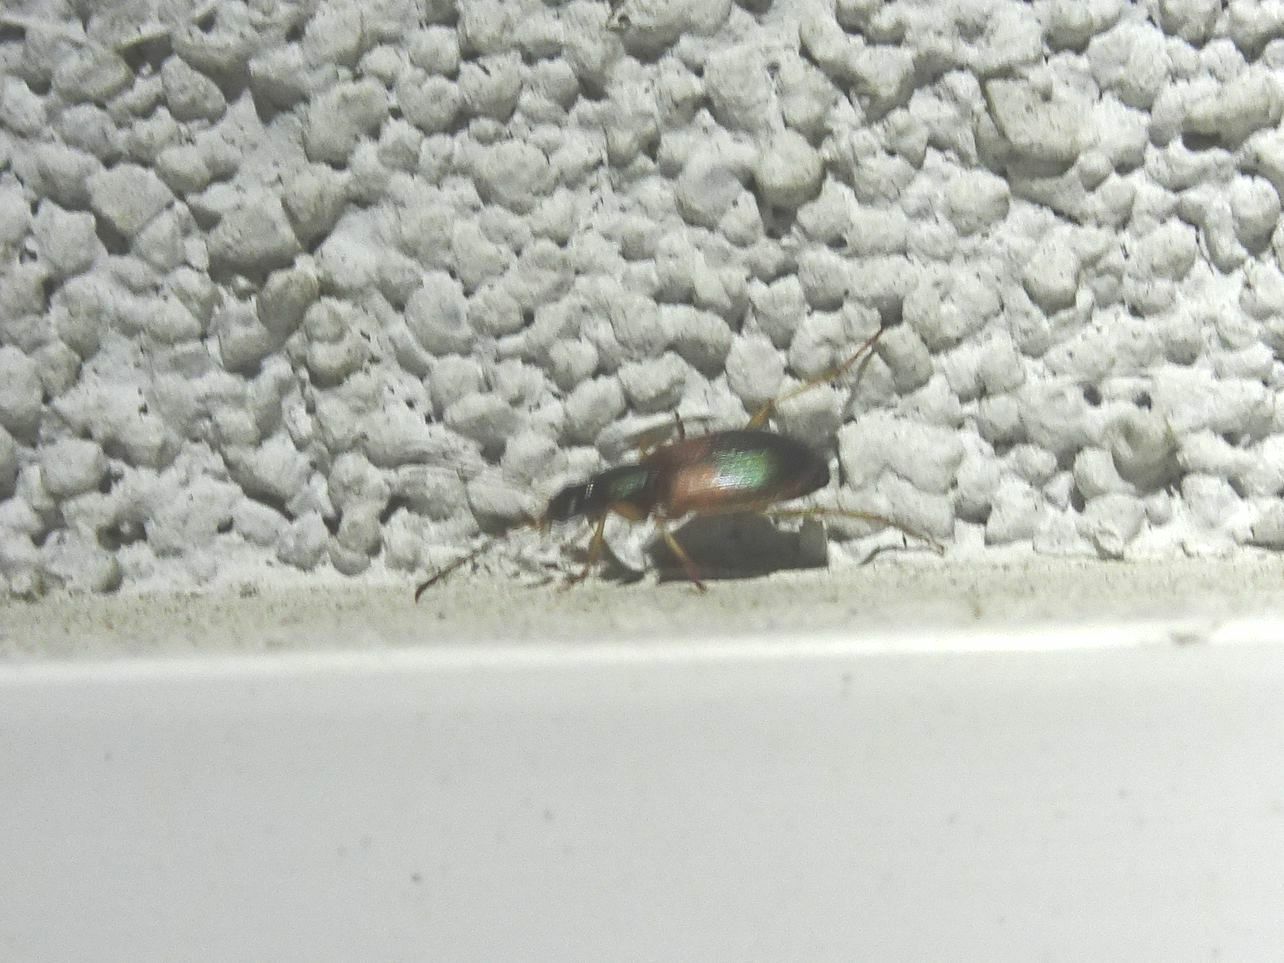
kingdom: Animalia
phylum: Arthropoda
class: Insecta
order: Coleoptera
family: Carabidae
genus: Anchomenus
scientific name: Anchomenus dorsalis
